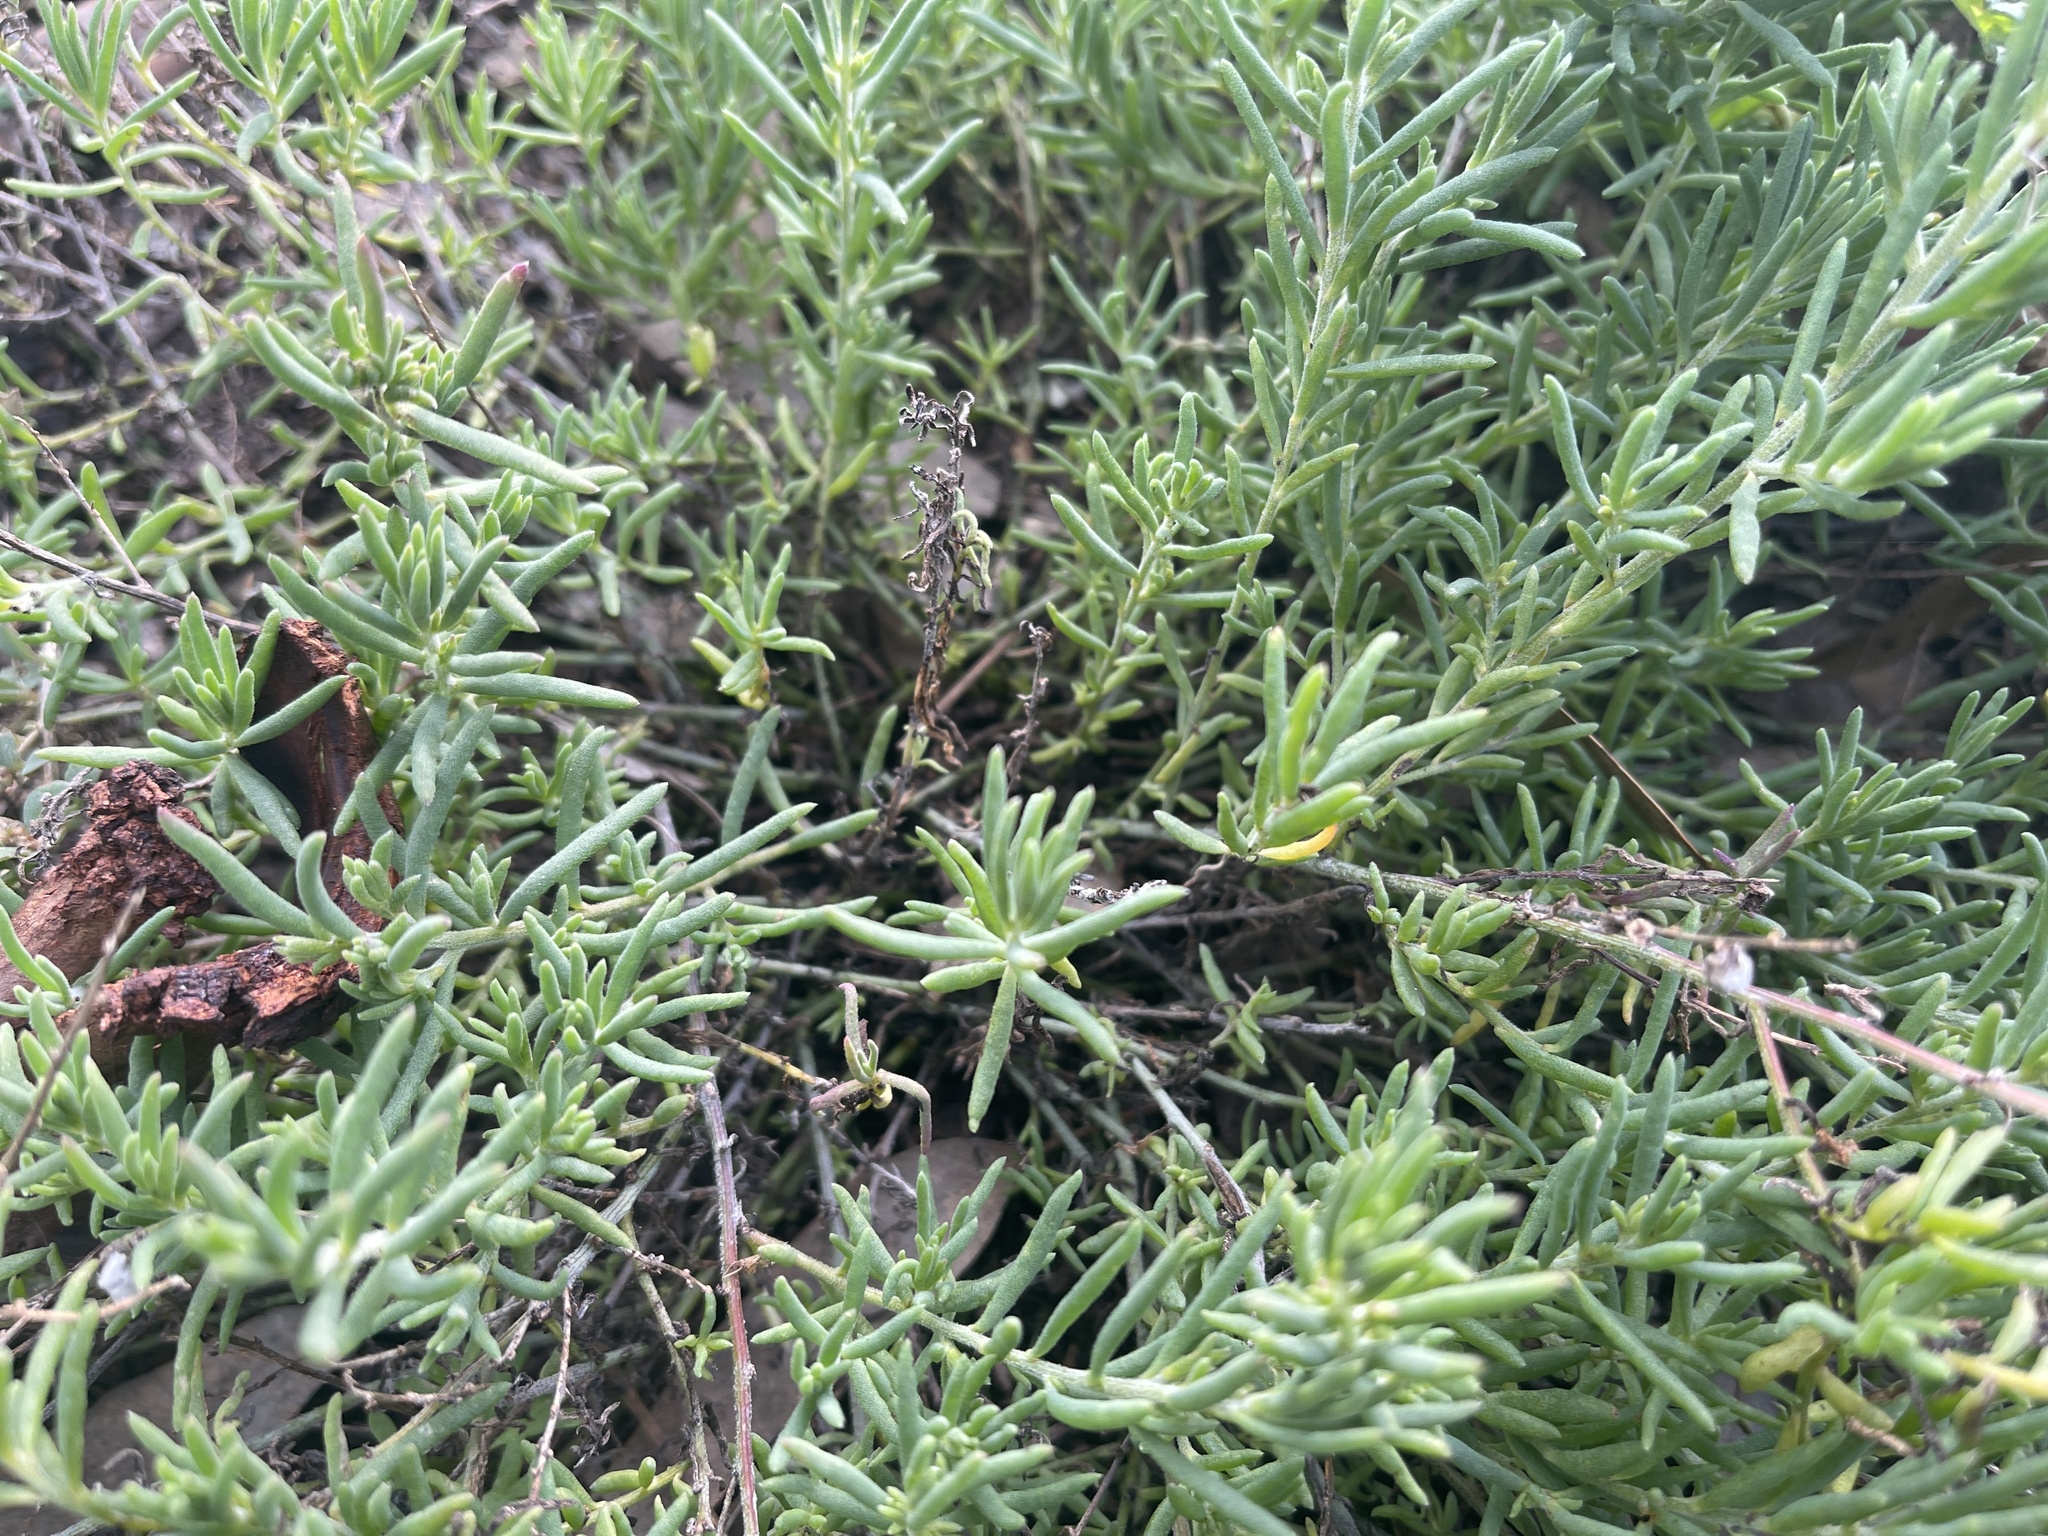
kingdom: Plantae
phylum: Tracheophyta
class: Magnoliopsida
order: Caryophyllales
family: Amaranthaceae
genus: Enchylaena
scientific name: Enchylaena tomentosa
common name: Ruby saltbush
